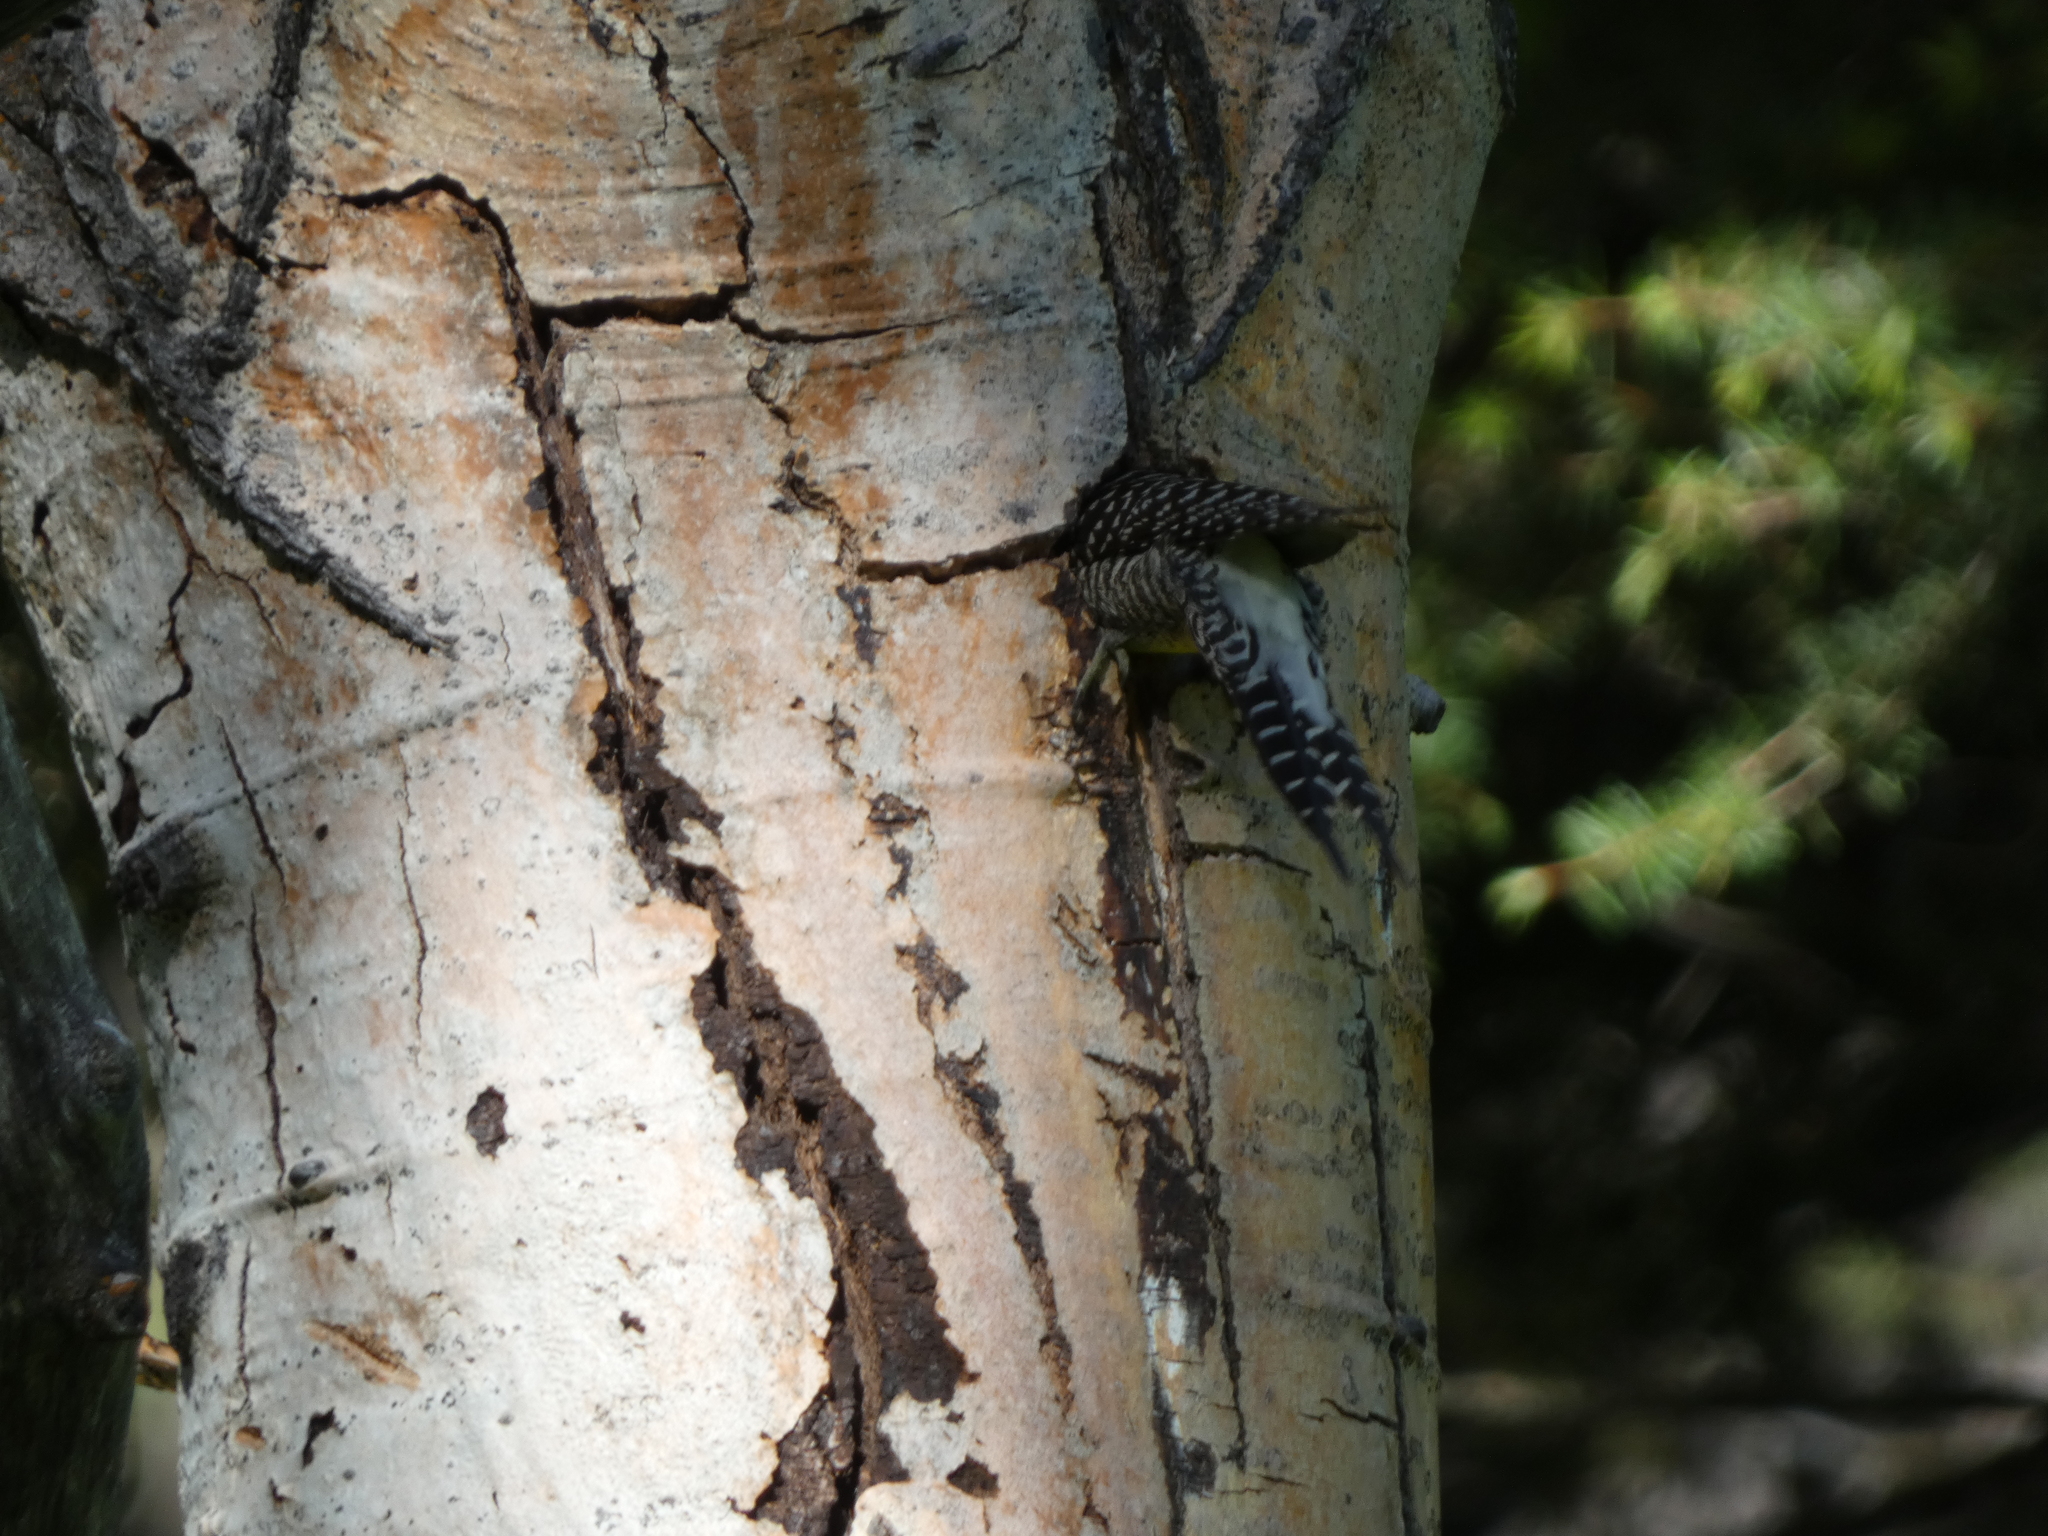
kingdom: Animalia
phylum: Chordata
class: Aves
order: Piciformes
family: Picidae
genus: Sphyrapicus
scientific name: Sphyrapicus thyroideus
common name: Williamson's sapsucker
